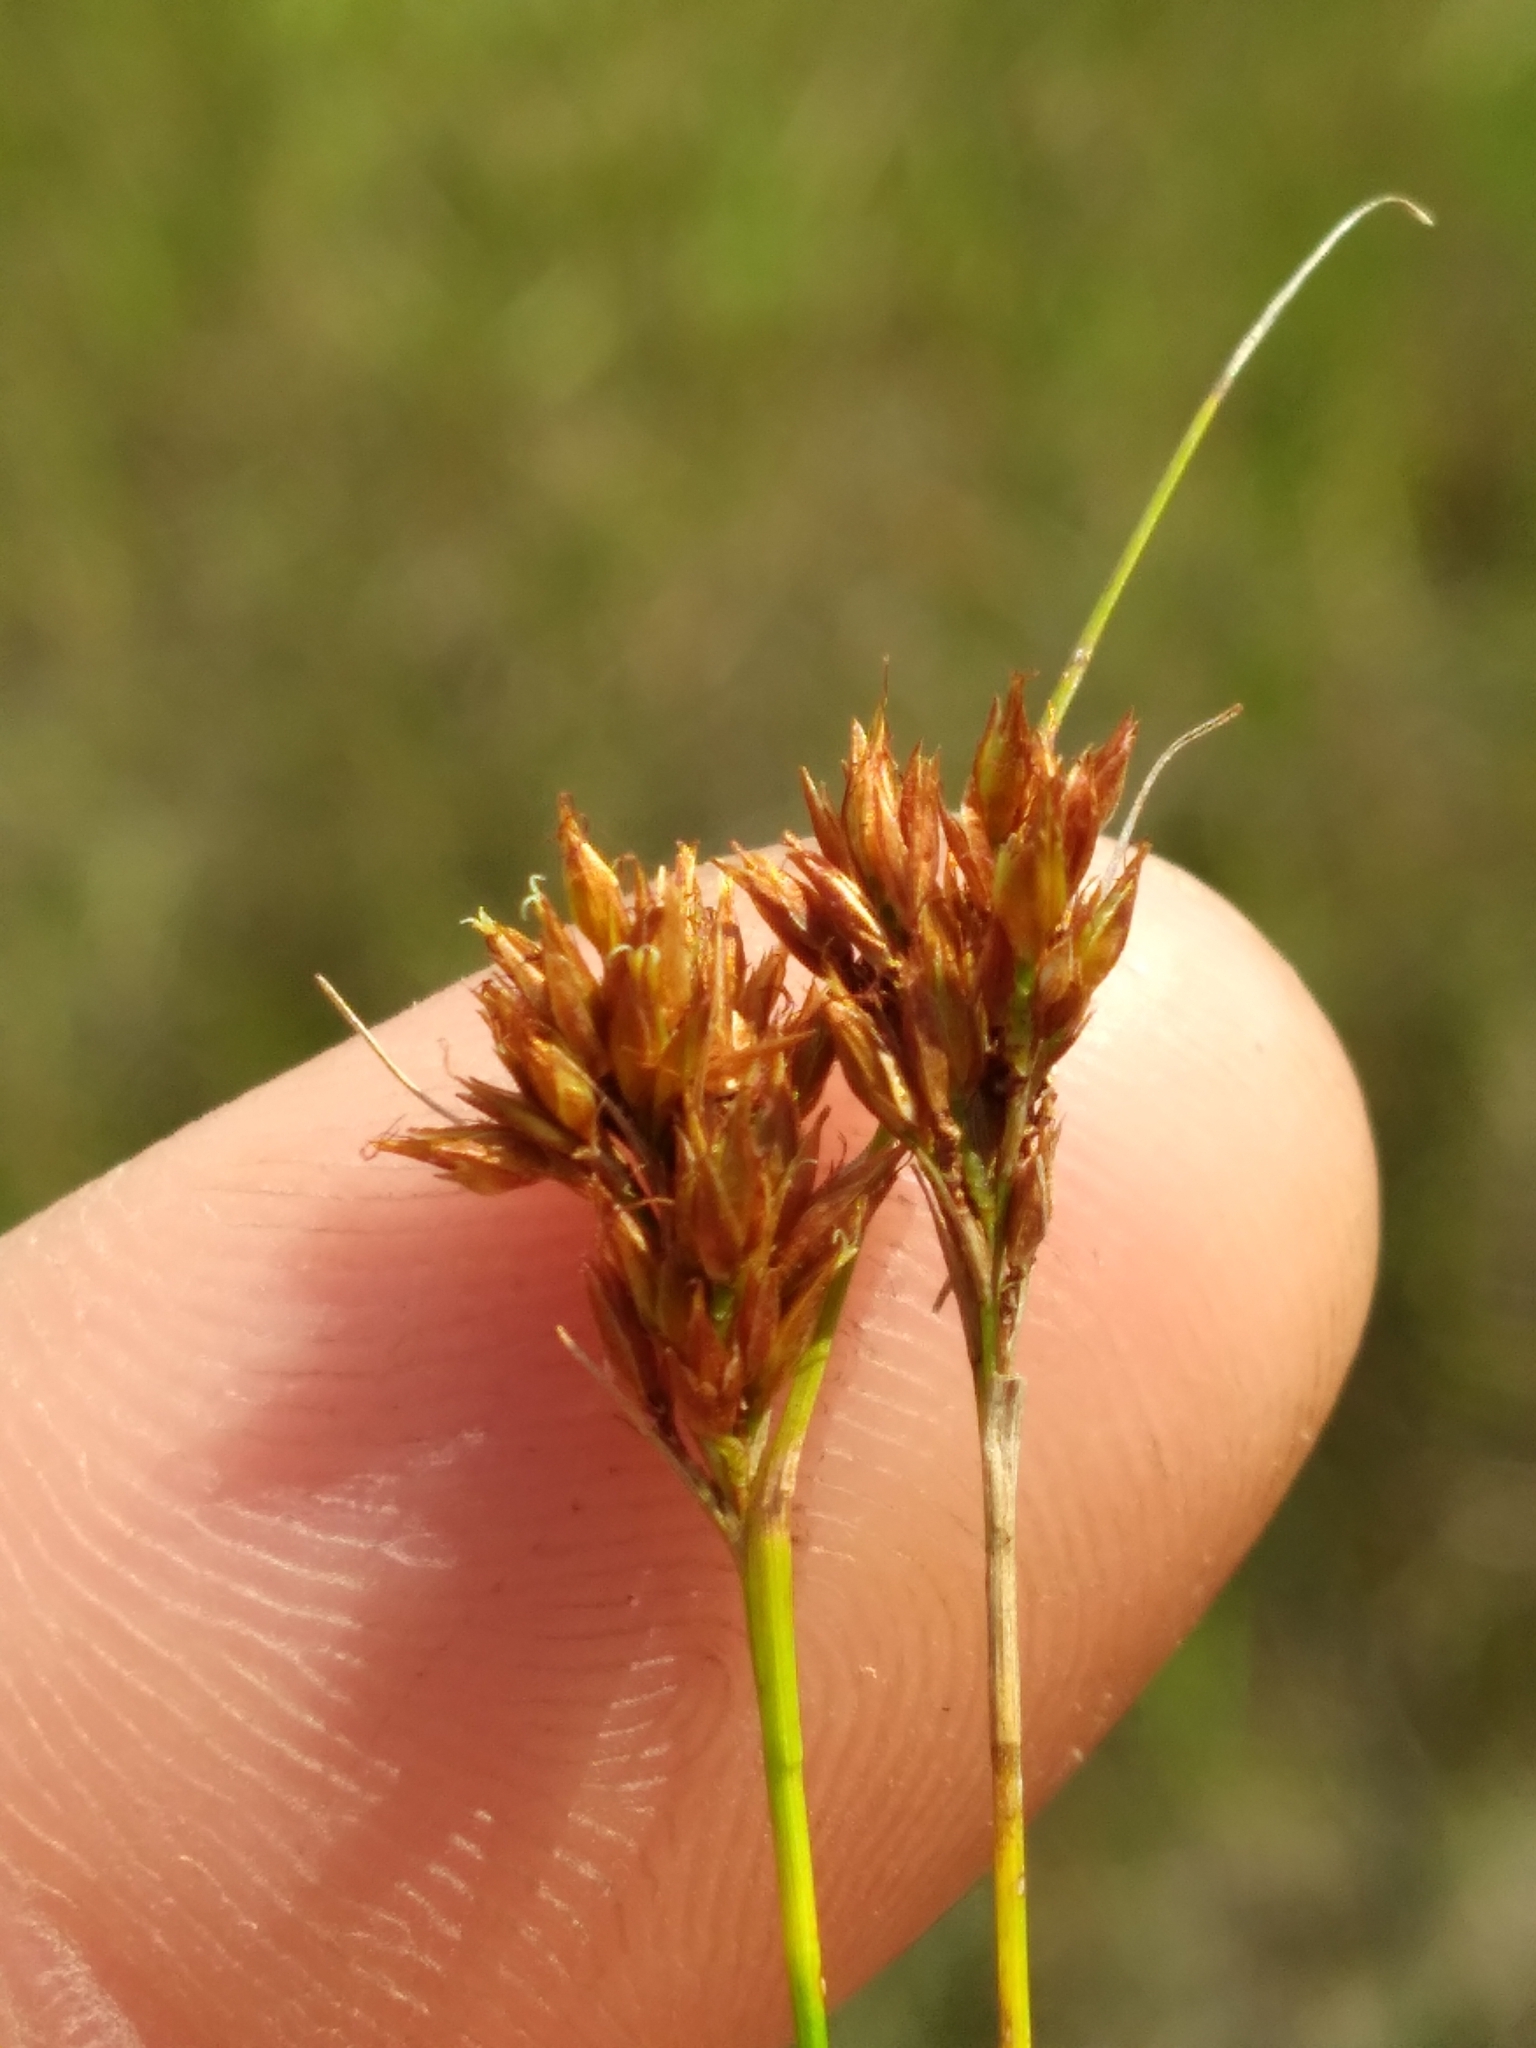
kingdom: Plantae
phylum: Tracheophyta
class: Liliopsida
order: Poales
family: Cyperaceae
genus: Rhynchospora
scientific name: Rhynchospora filifolia
